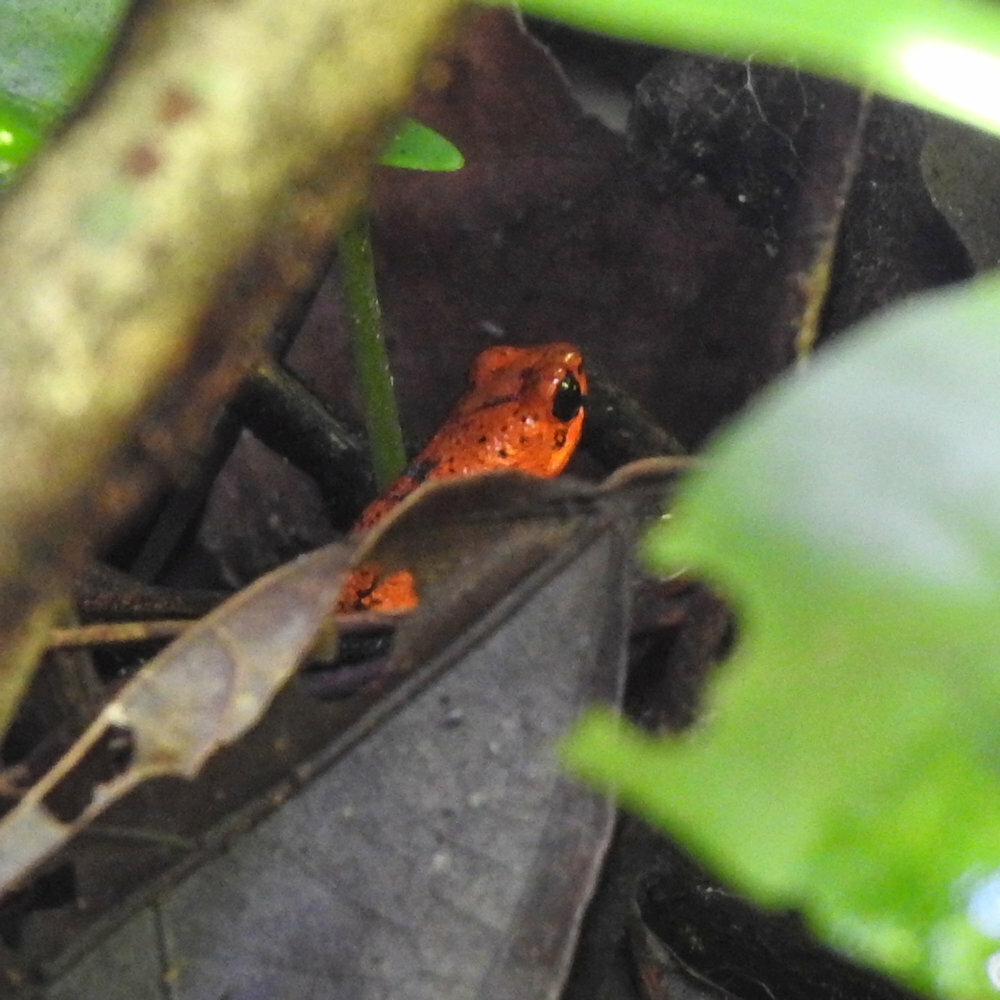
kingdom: Animalia
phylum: Chordata
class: Amphibia
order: Anura
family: Dendrobatidae
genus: Oophaga
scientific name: Oophaga pumilio
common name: Flaming poison frog
